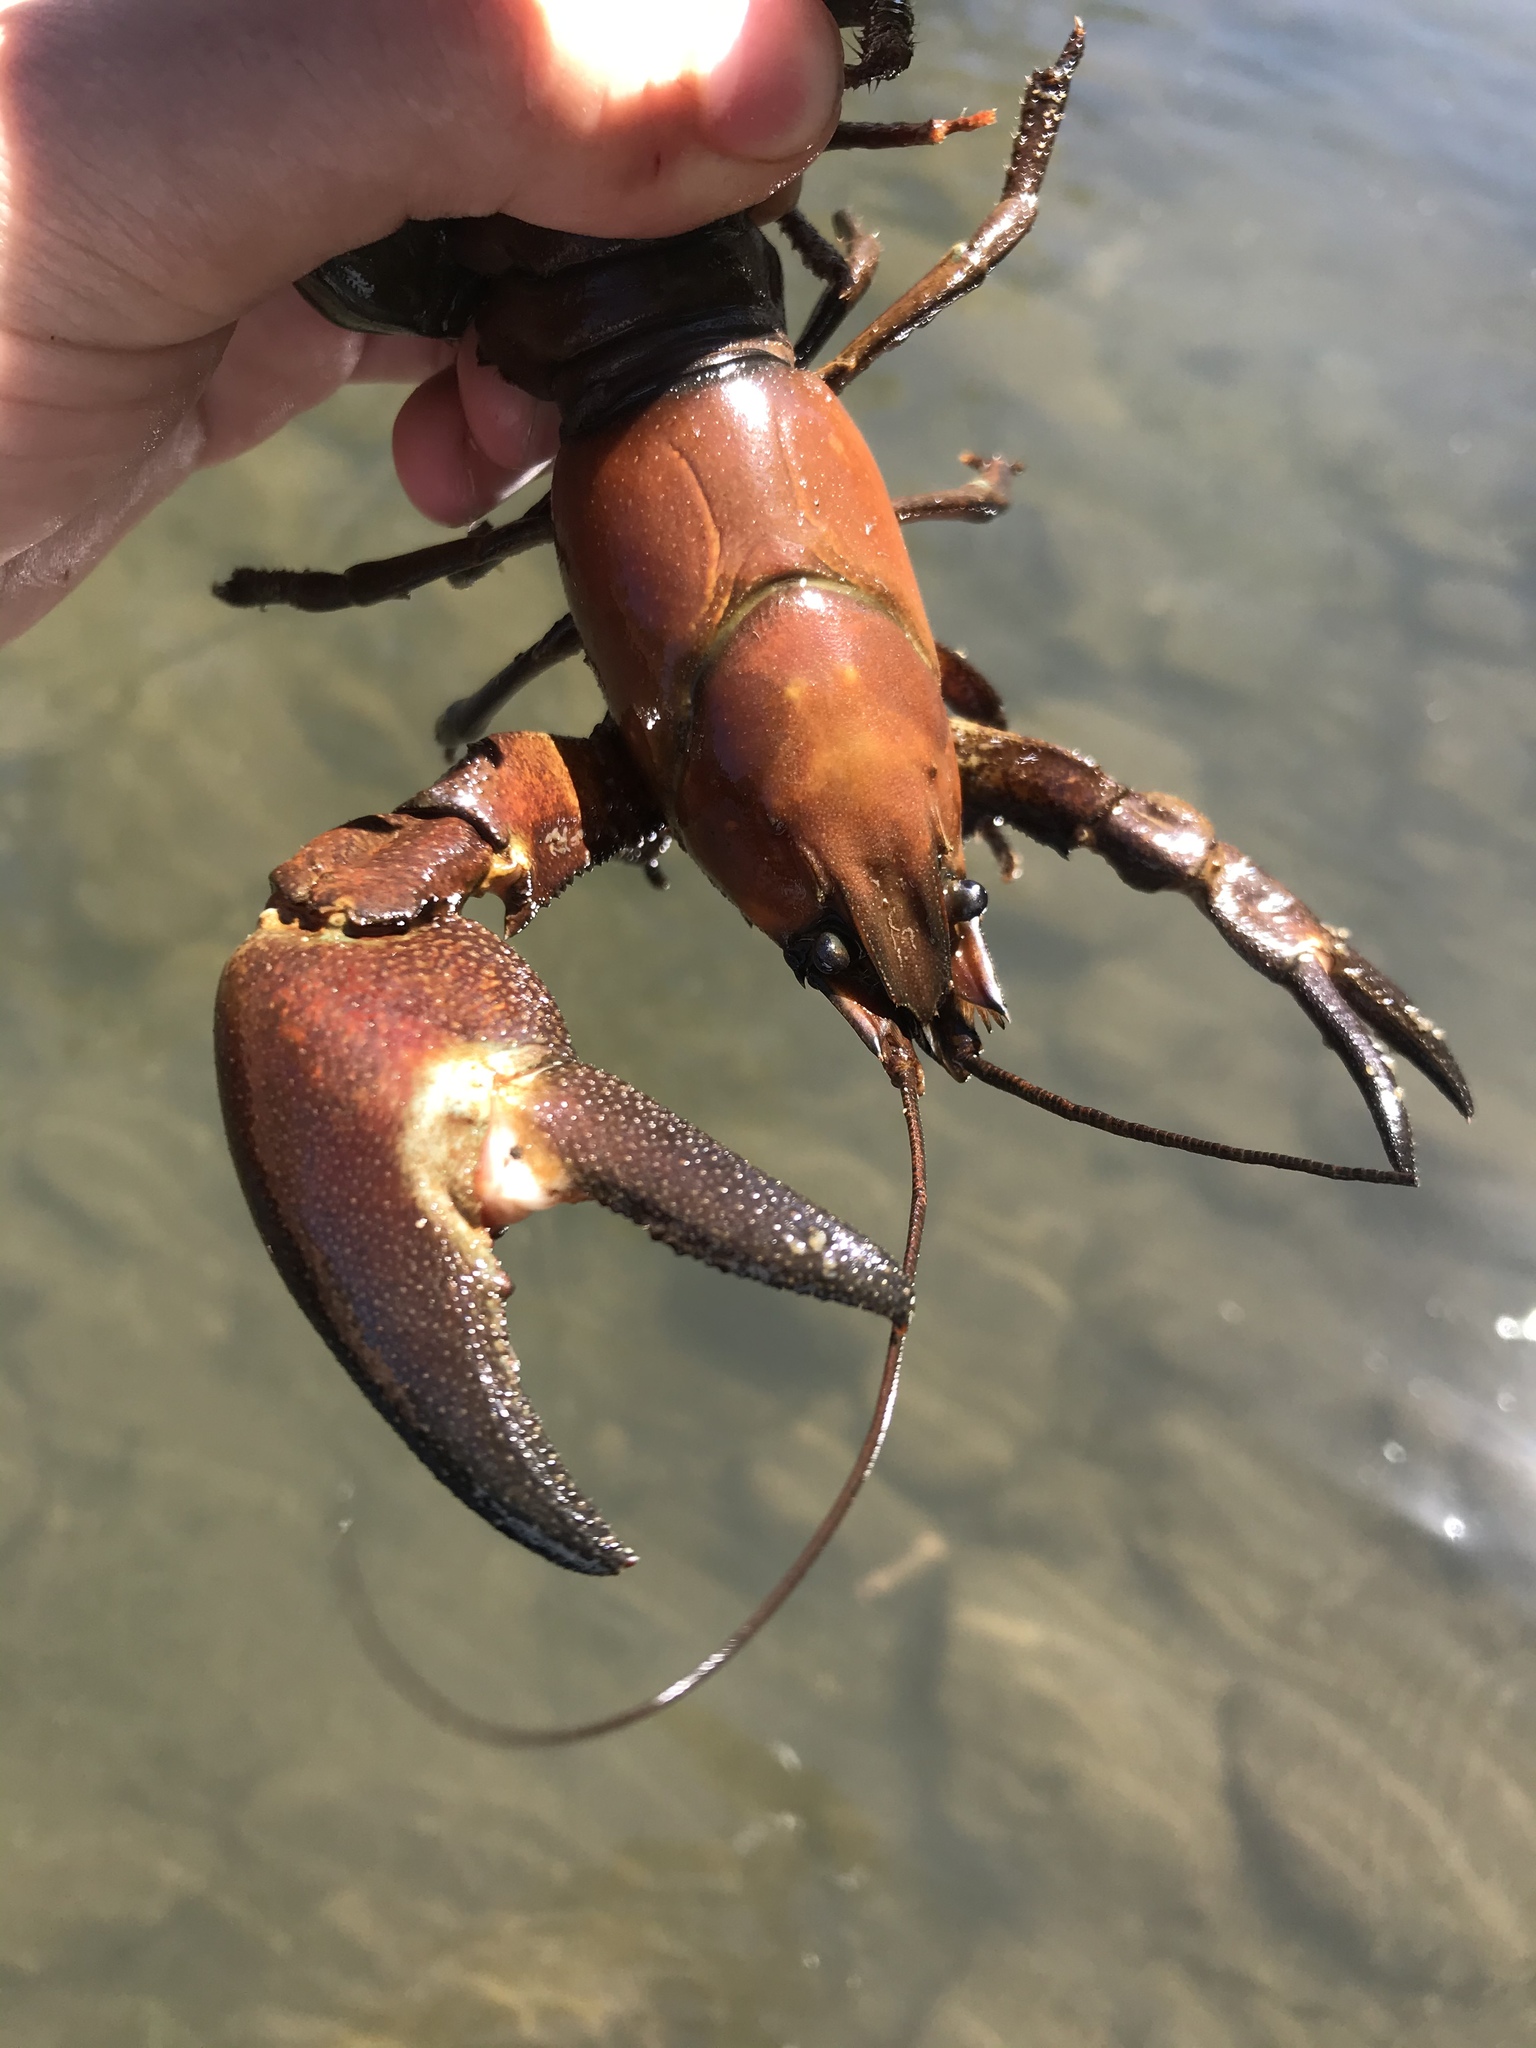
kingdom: Animalia
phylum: Arthropoda
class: Malacostraca
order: Decapoda
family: Astacidae
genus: Pacifastacus
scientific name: Pacifastacus leniusculus
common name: Signal crayfish
